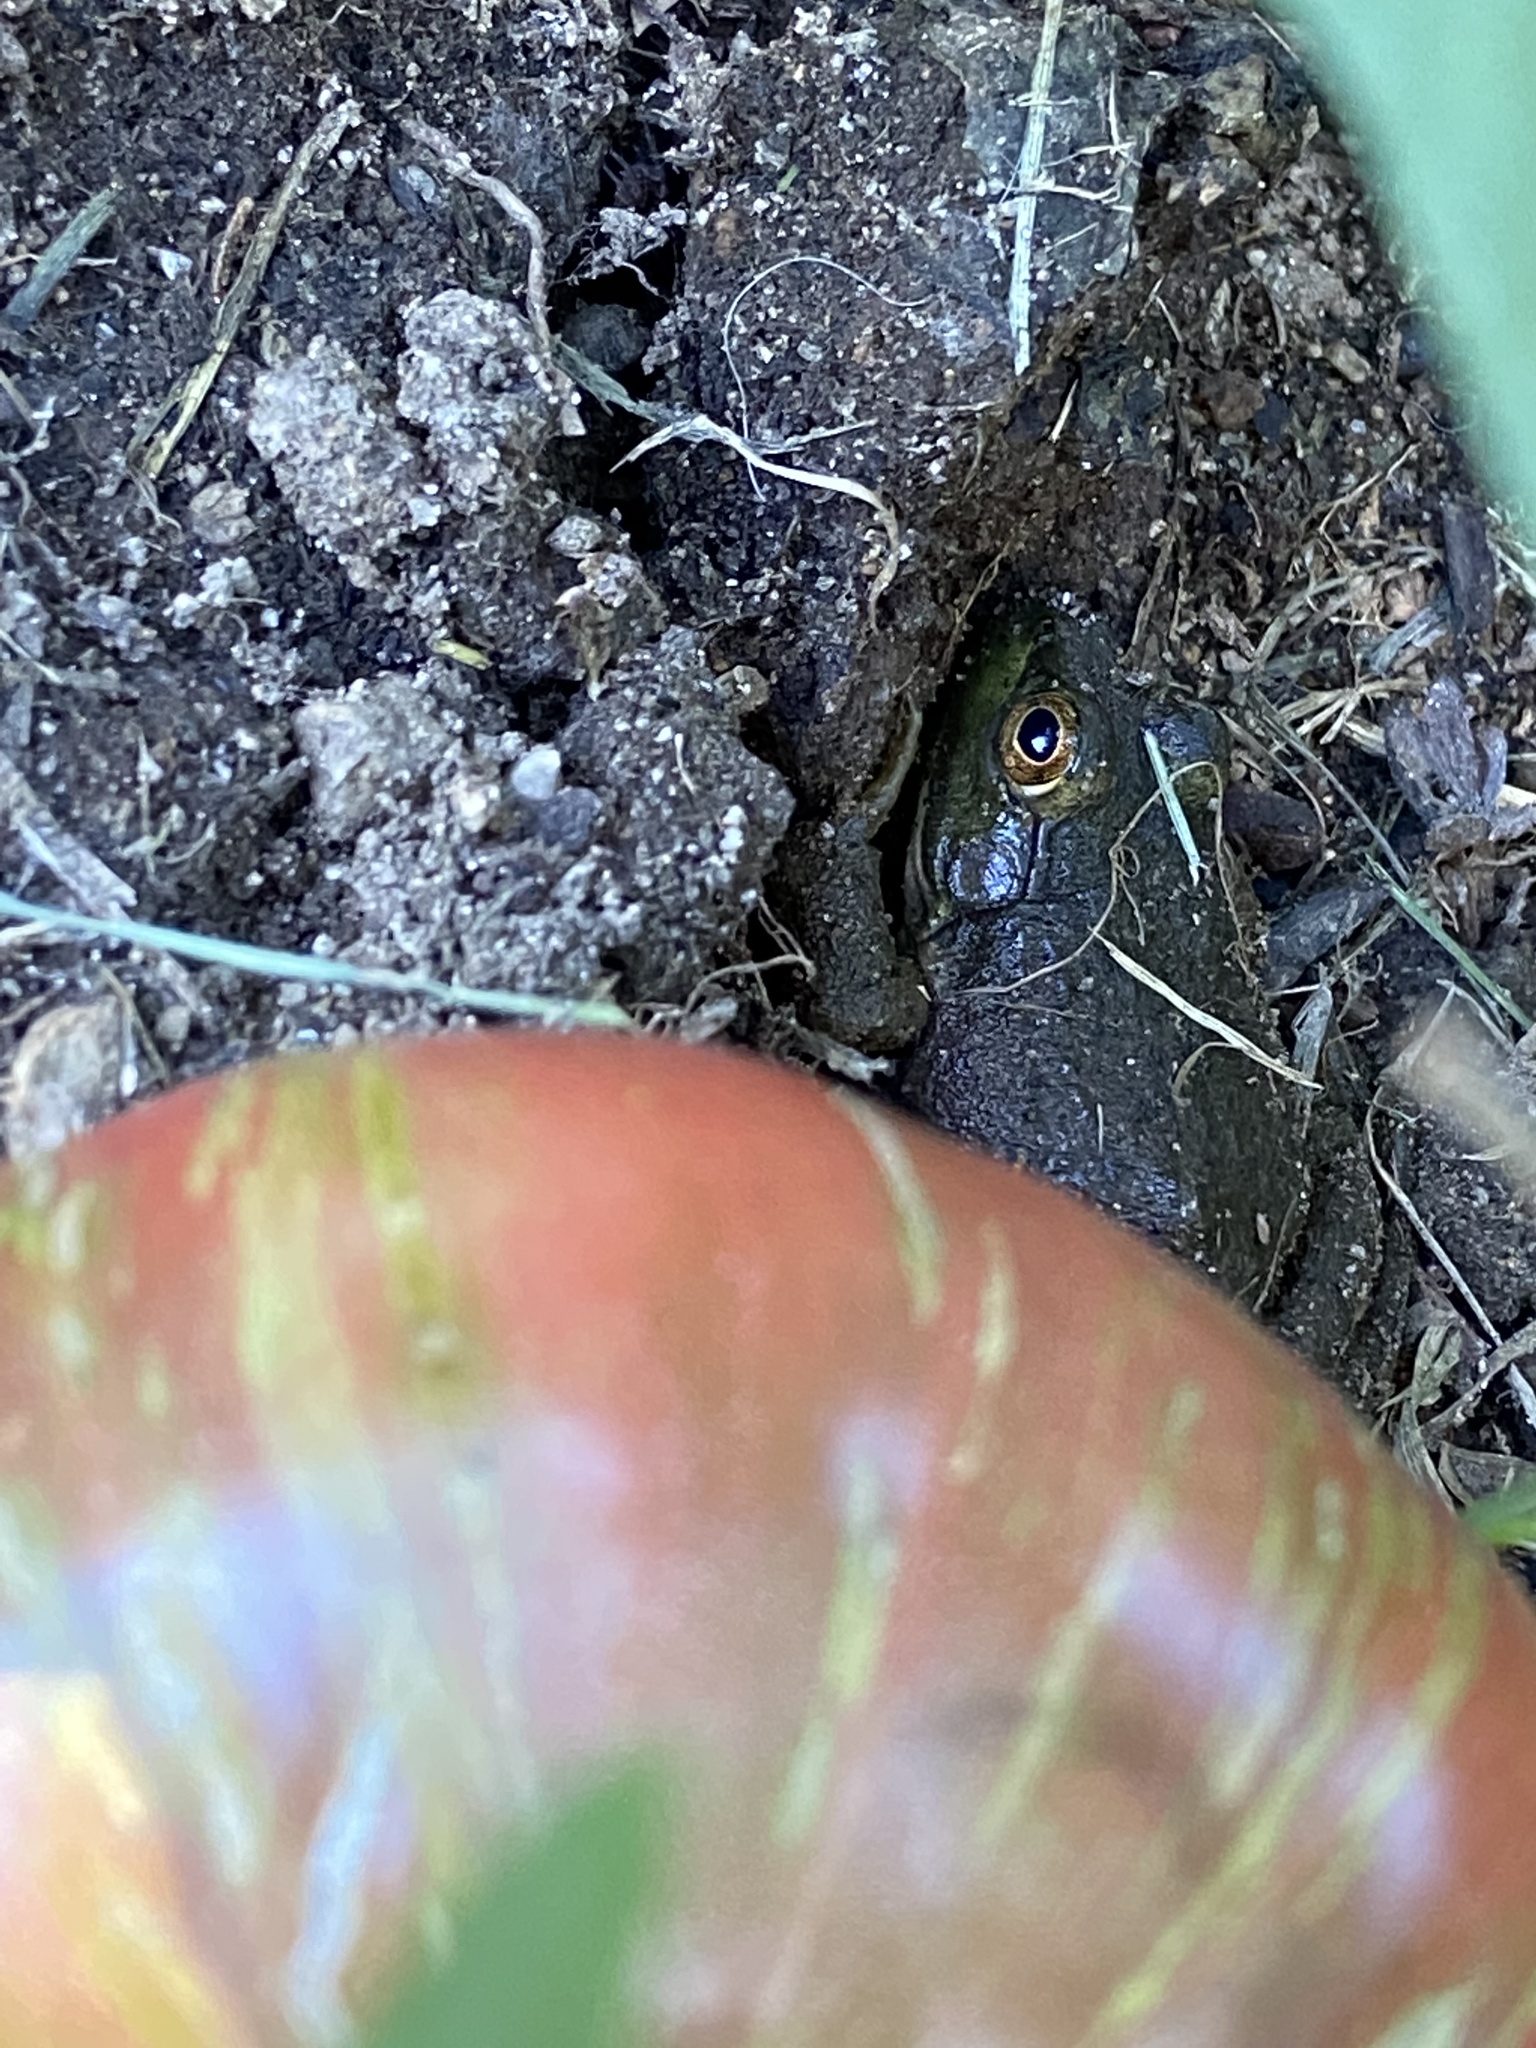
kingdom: Animalia
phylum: Chordata
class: Amphibia
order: Anura
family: Ranidae
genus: Lithobates
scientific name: Lithobates catesbeianus
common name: American bullfrog
